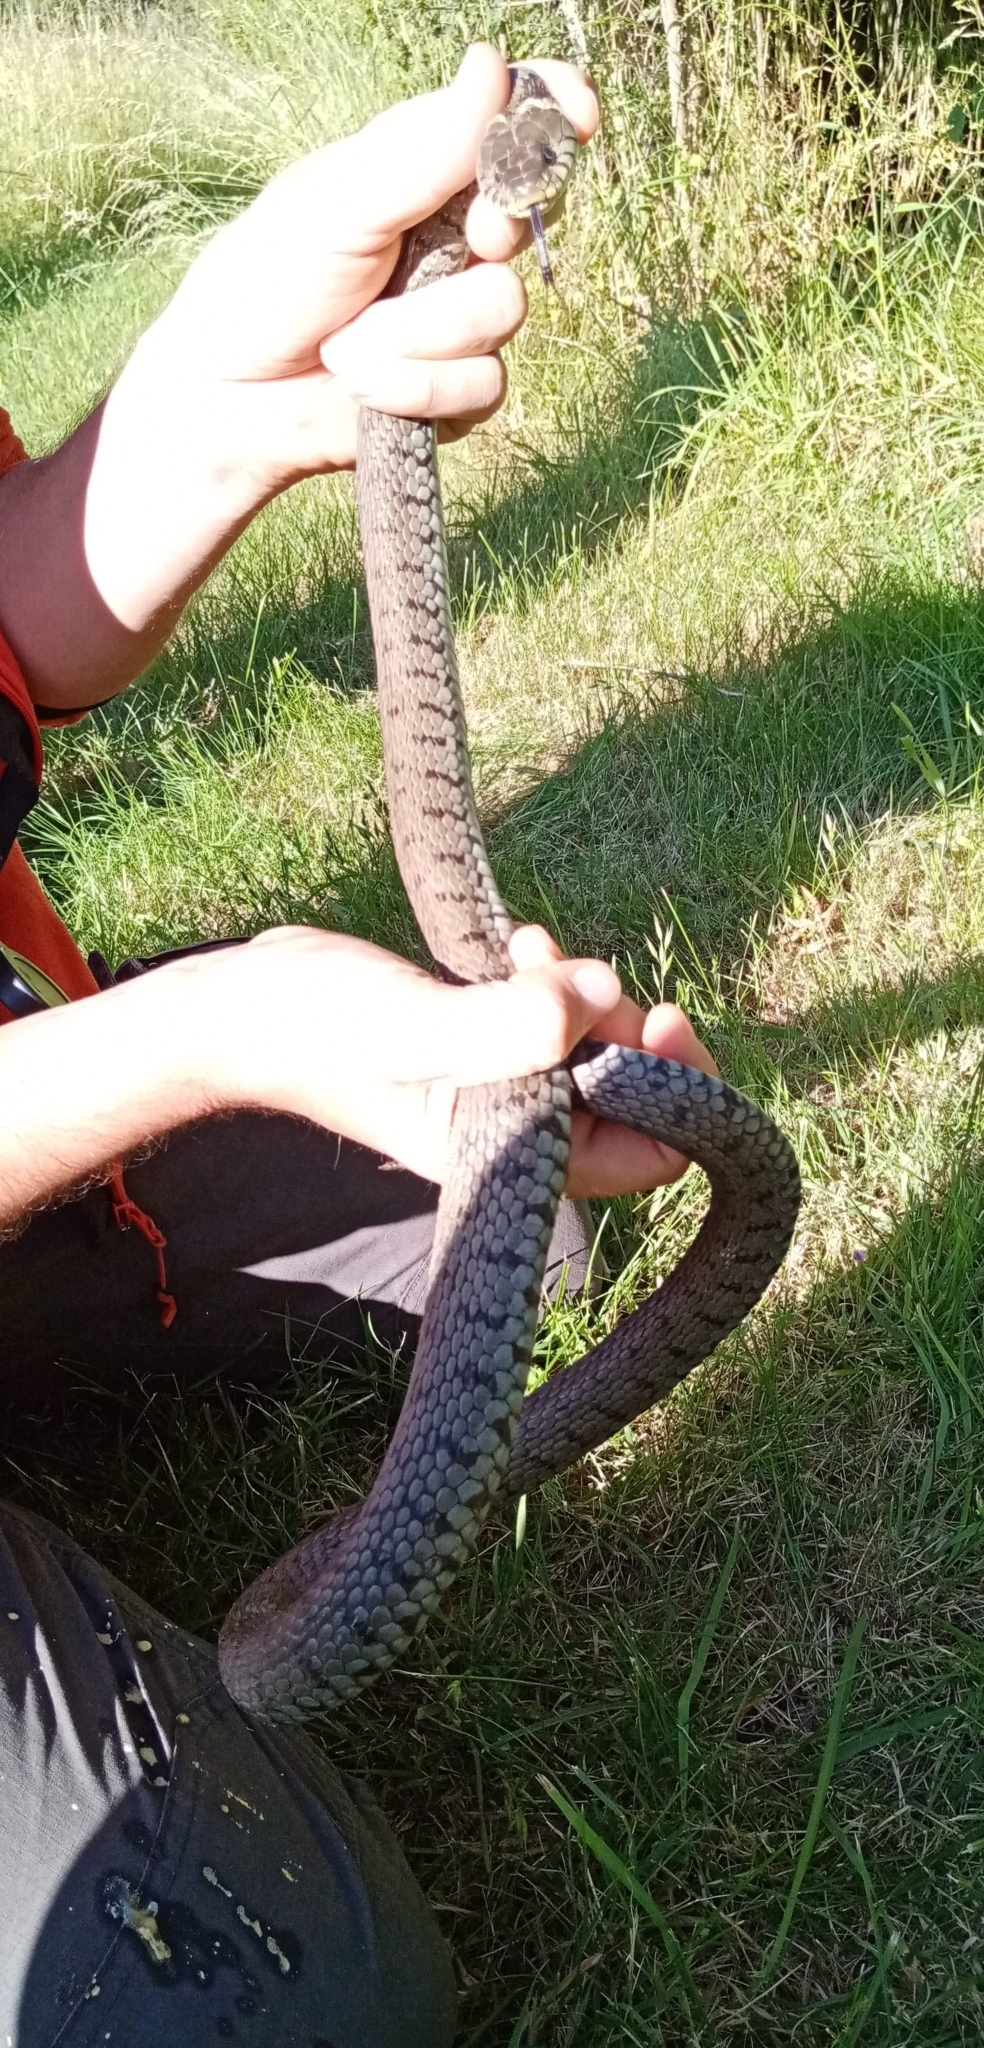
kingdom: Animalia
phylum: Chordata
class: Squamata
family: Colubridae
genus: Natrix
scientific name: Natrix helvetica
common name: Banded grass snake
